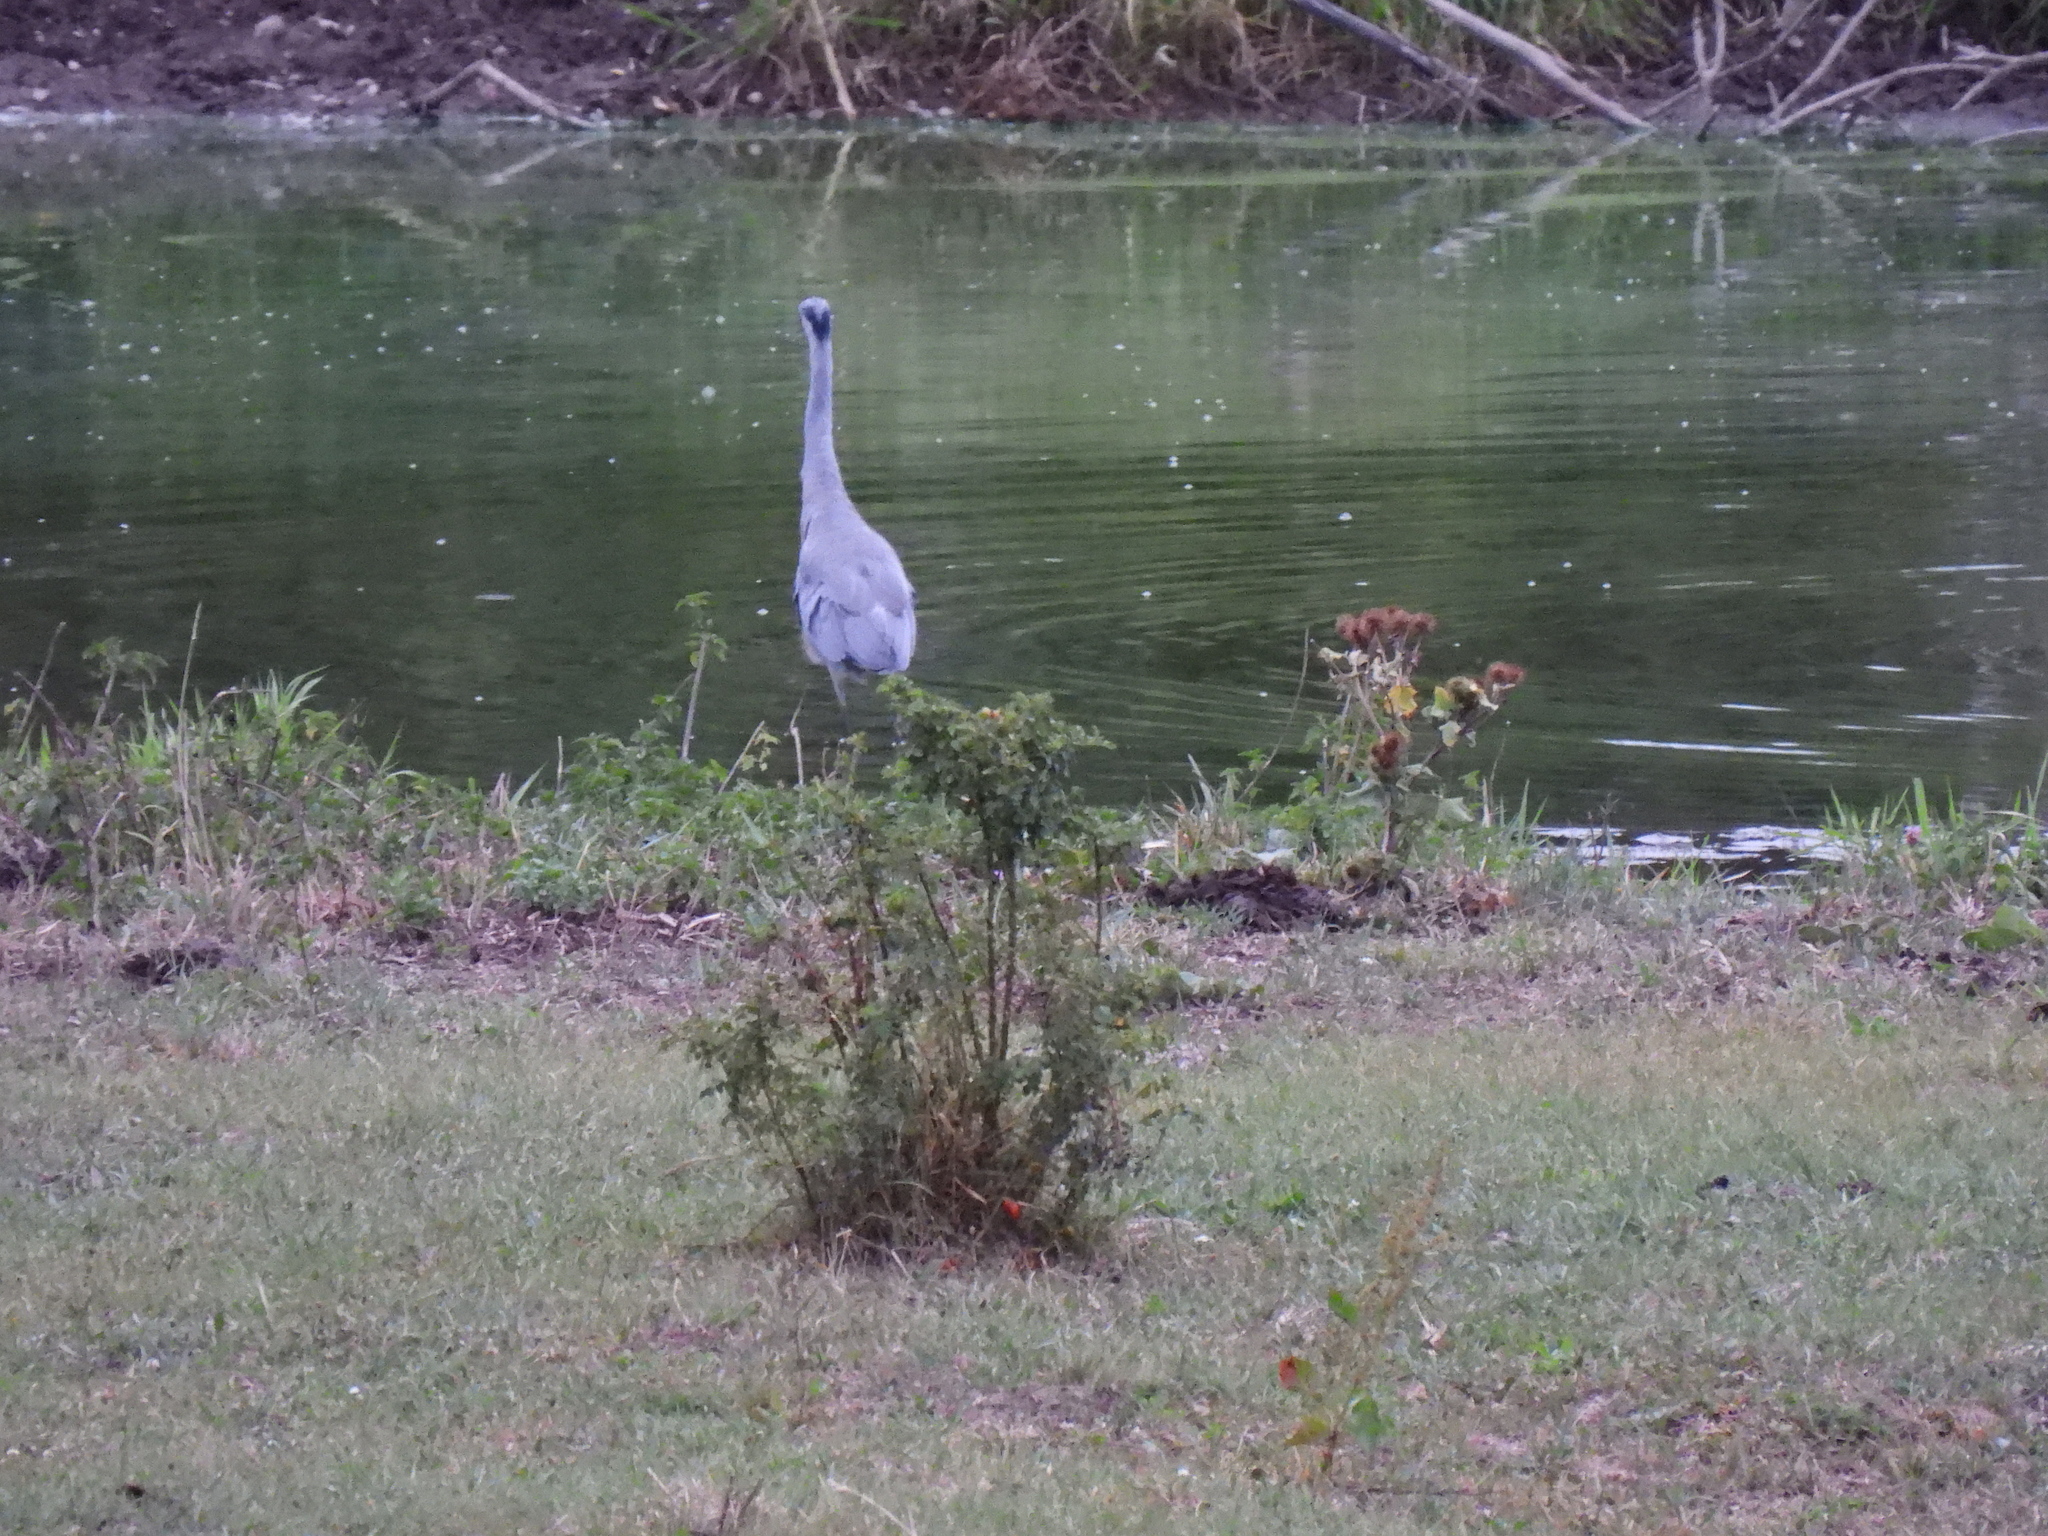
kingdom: Animalia
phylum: Chordata
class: Aves
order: Pelecaniformes
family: Ardeidae
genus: Ardea
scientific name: Ardea cinerea
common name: Grey heron
